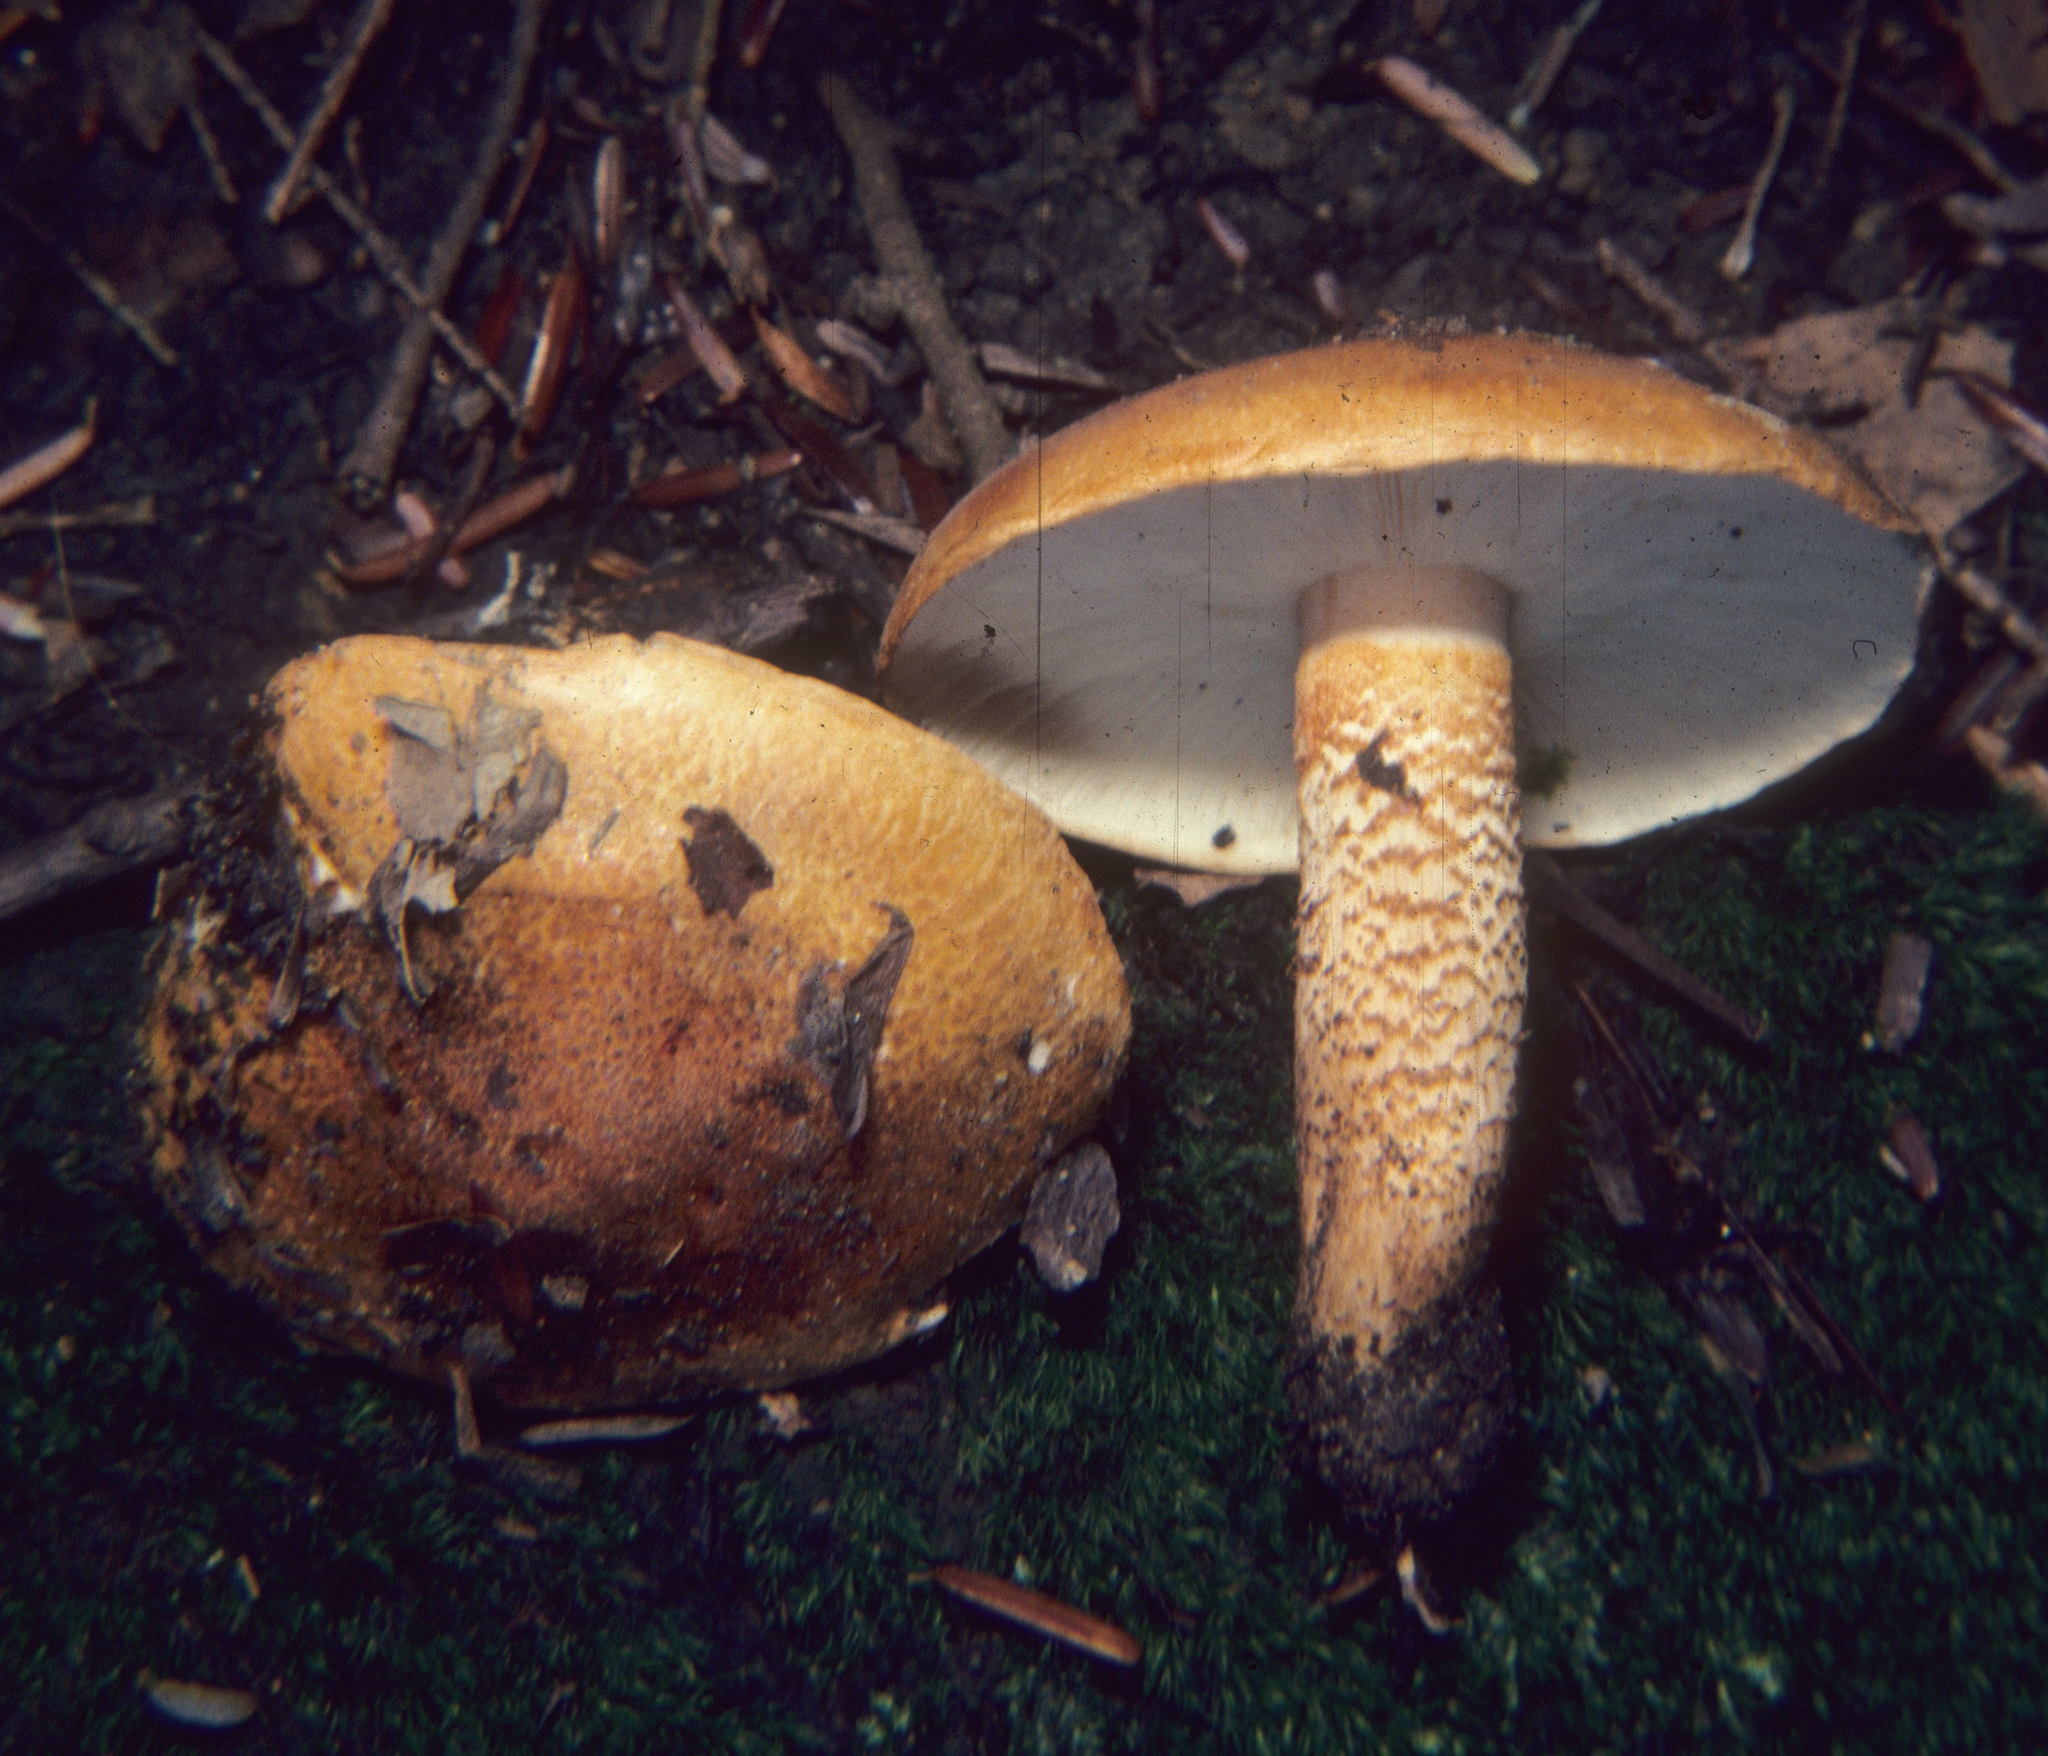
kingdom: Fungi
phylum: Basidiomycota
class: Agaricomycetes
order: Agaricales
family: Tricholomataceae
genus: Tricholoma
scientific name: Tricholoma aurantium
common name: Orange knight
